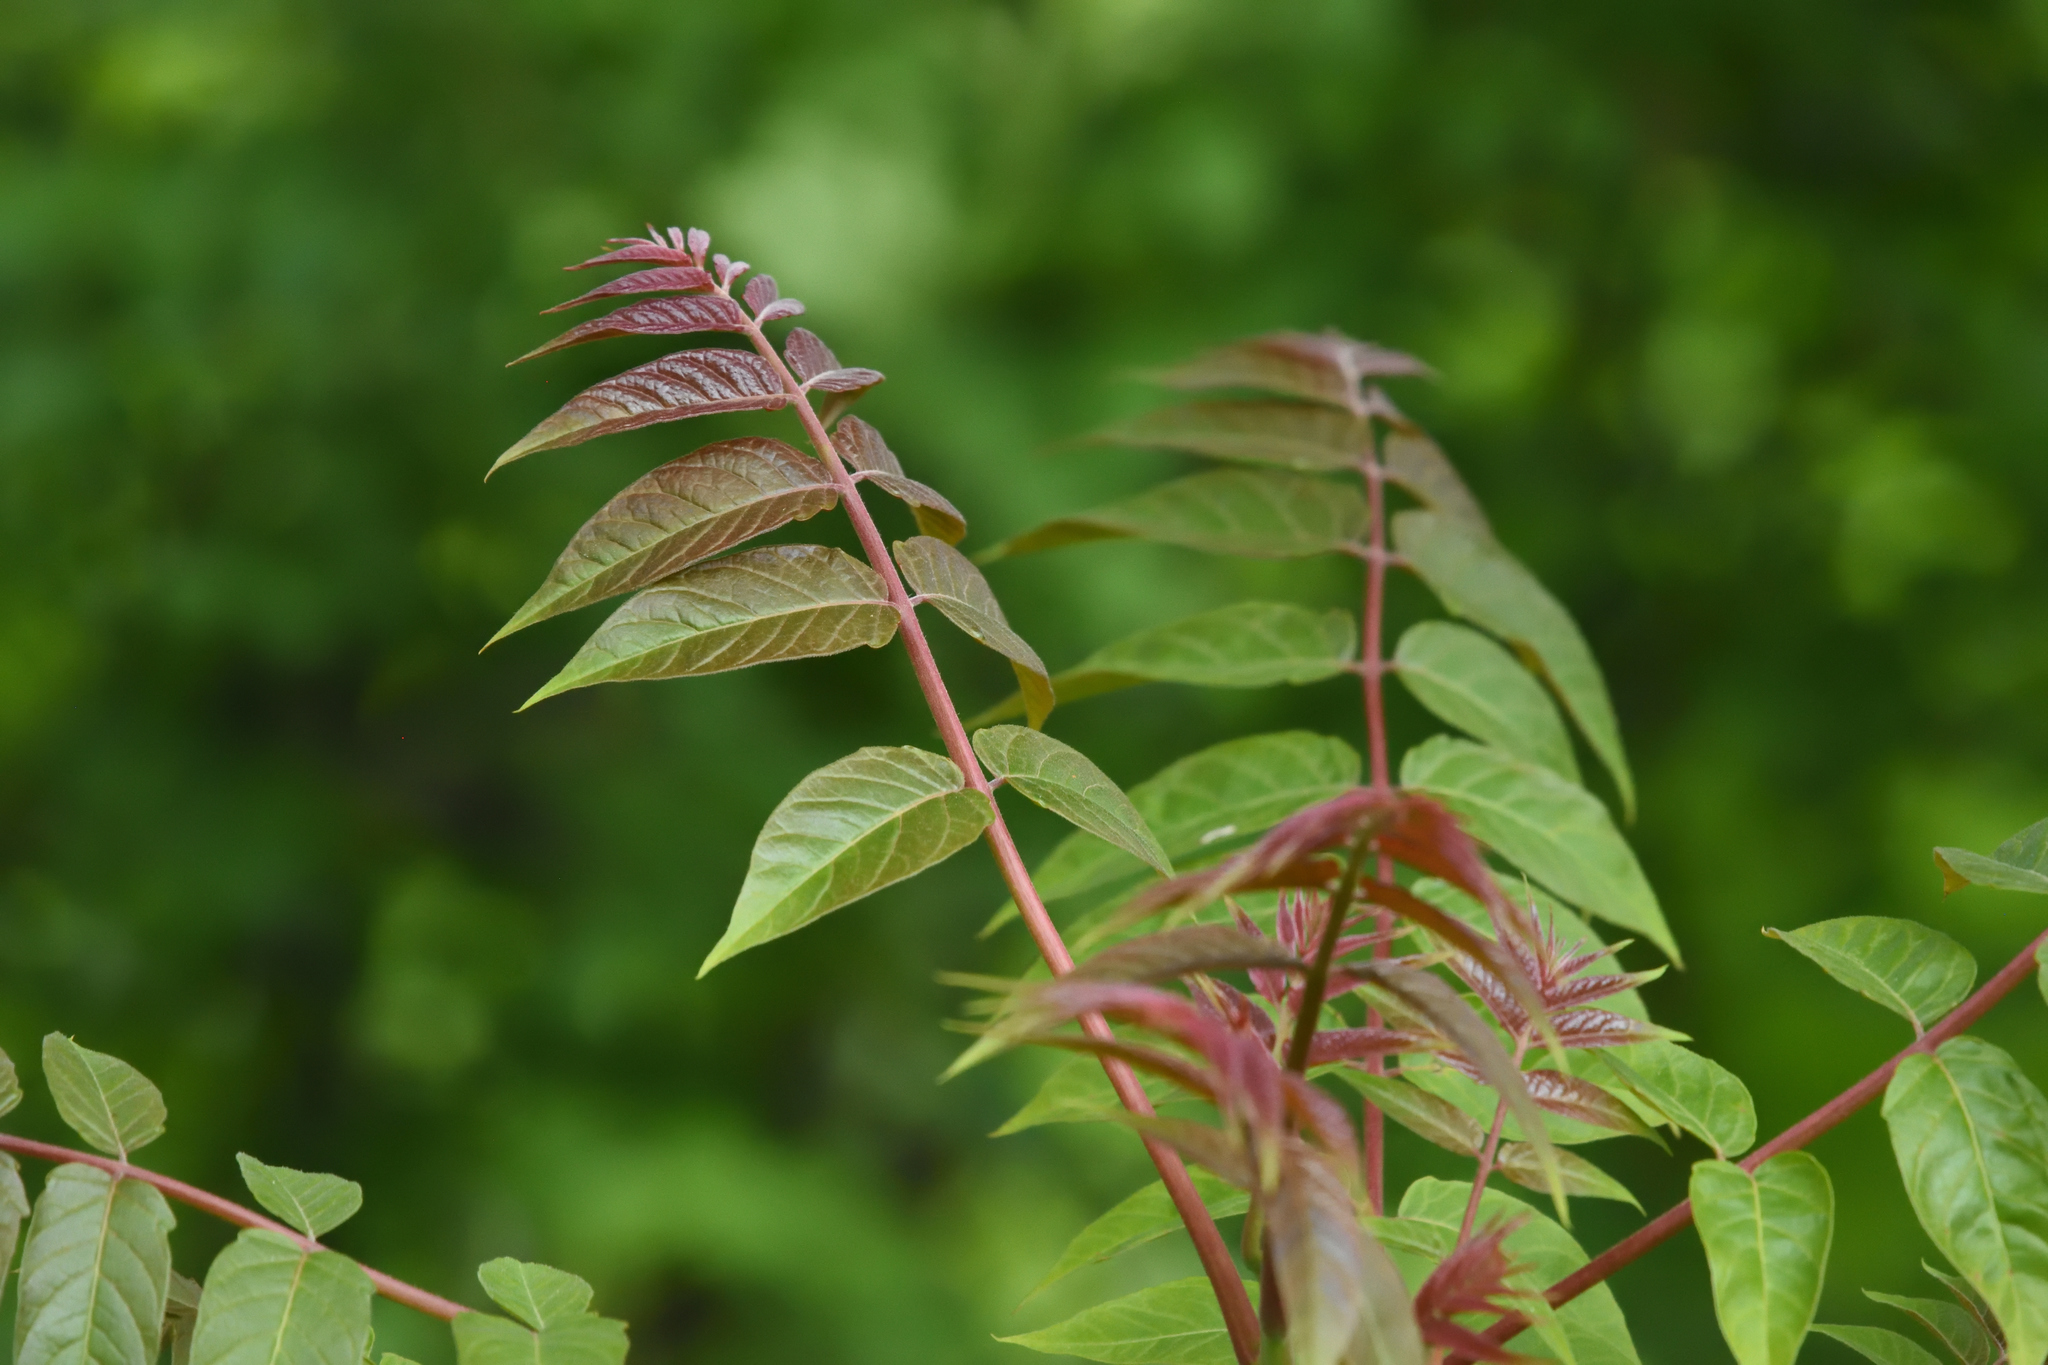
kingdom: Plantae
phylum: Tracheophyta
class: Magnoliopsida
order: Sapindales
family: Simaroubaceae
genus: Ailanthus
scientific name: Ailanthus altissima
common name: Tree-of-heaven
